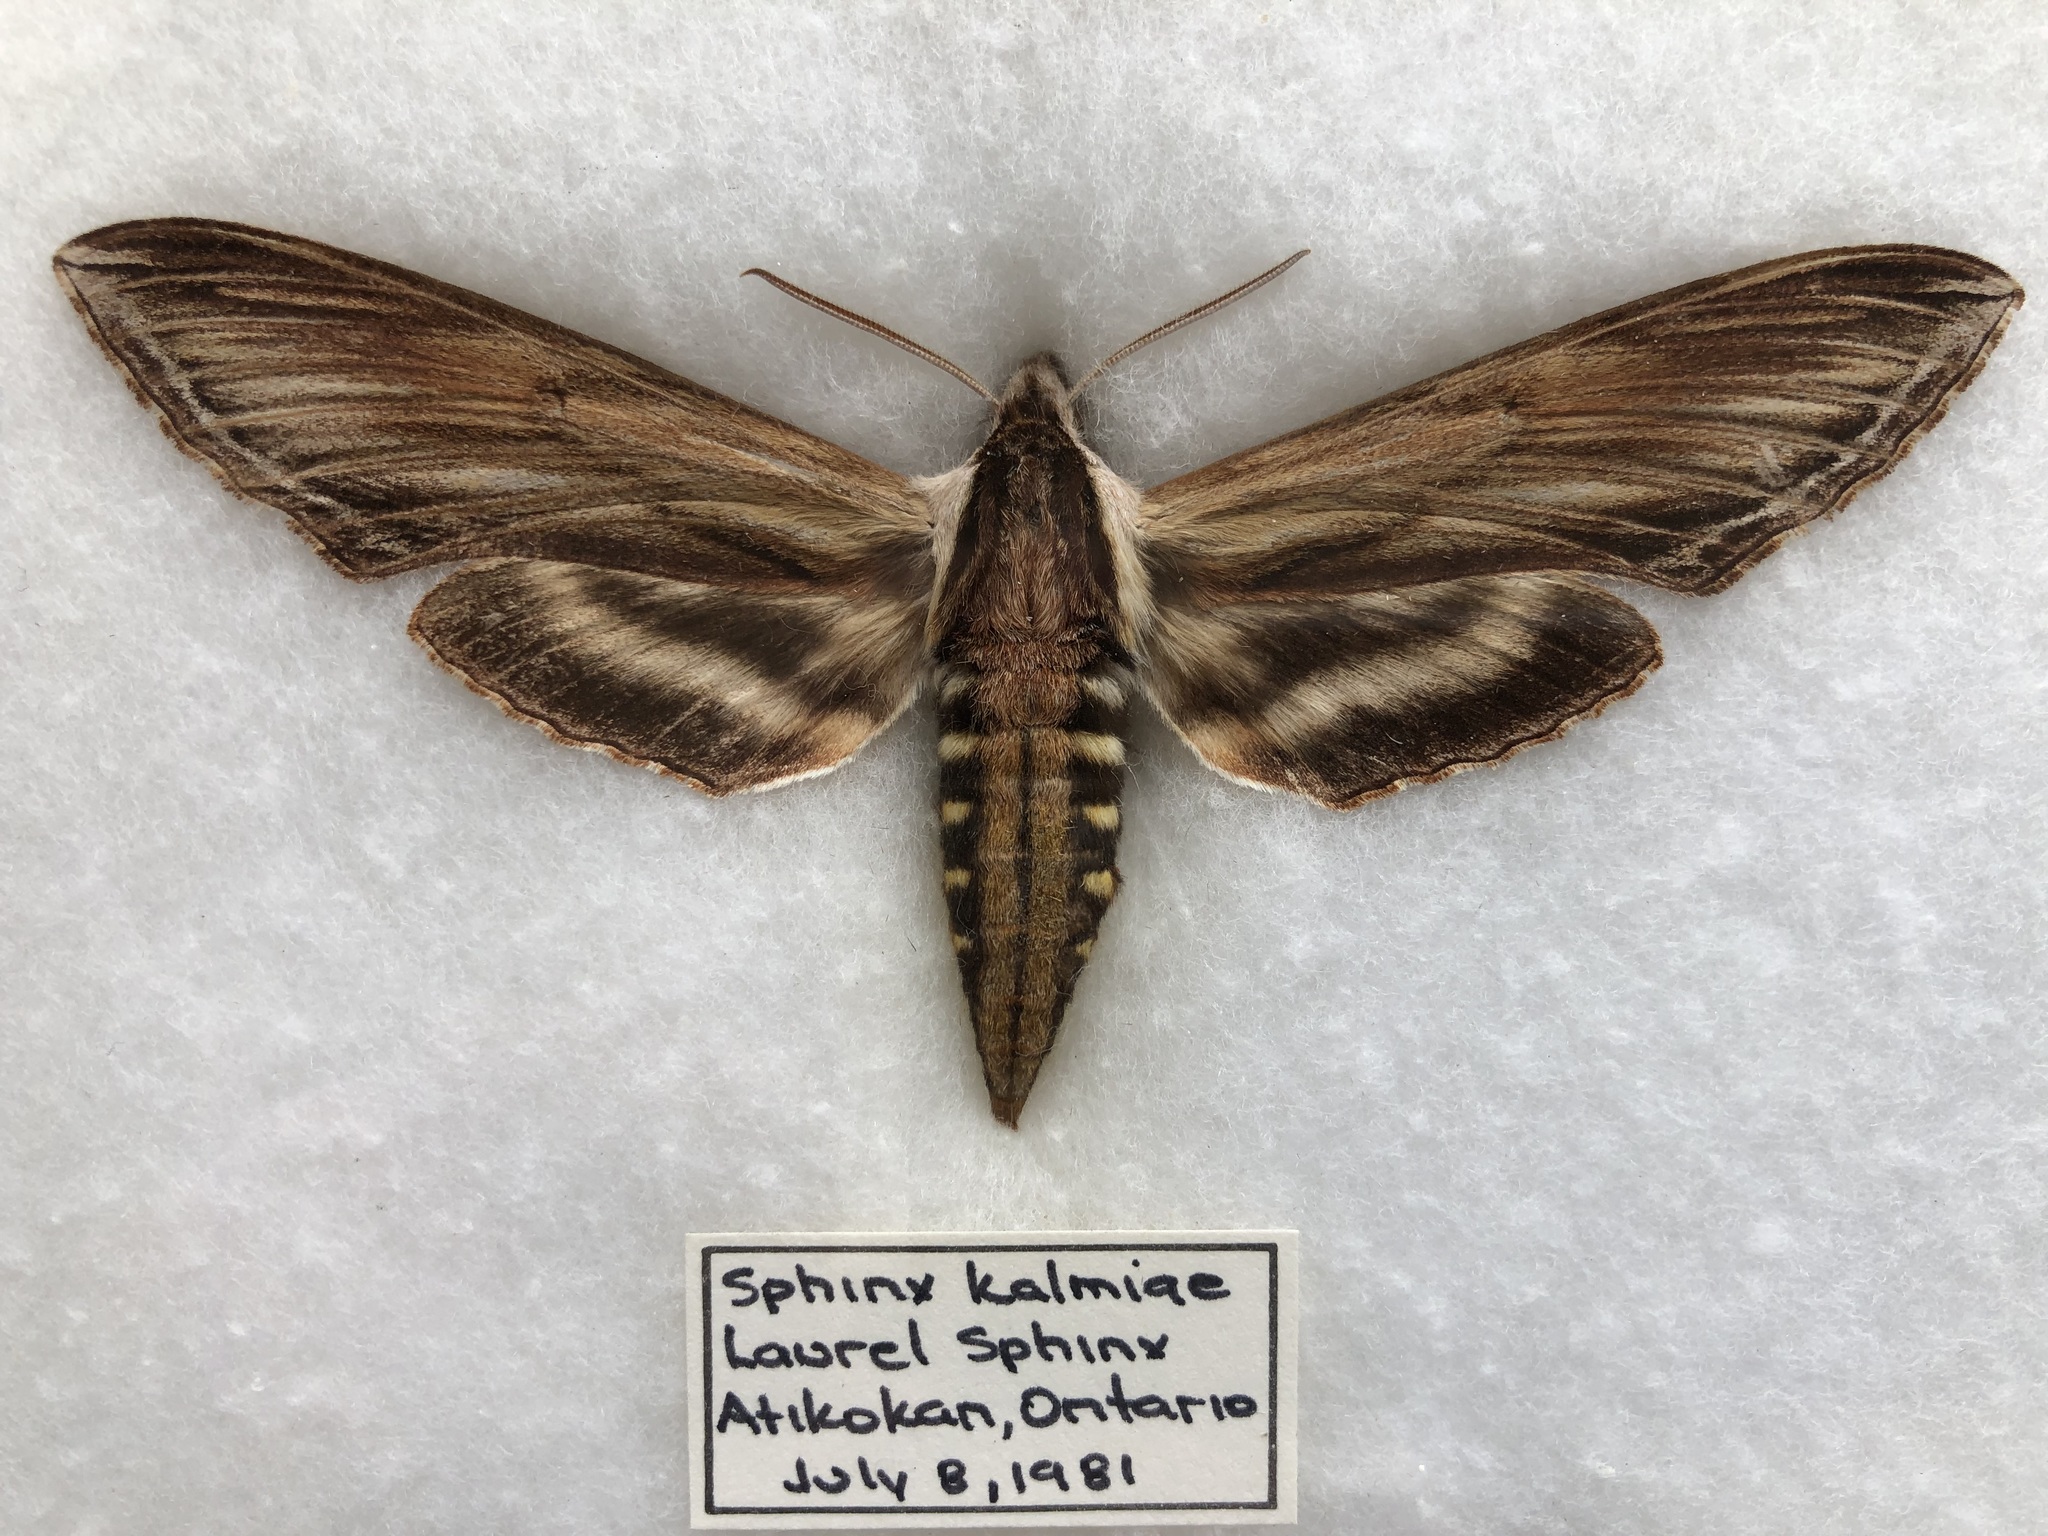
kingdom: Animalia
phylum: Arthropoda
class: Insecta
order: Lepidoptera
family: Sphingidae
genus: Sphinx
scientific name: Sphinx kalmiae
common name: Laurel sphinx
